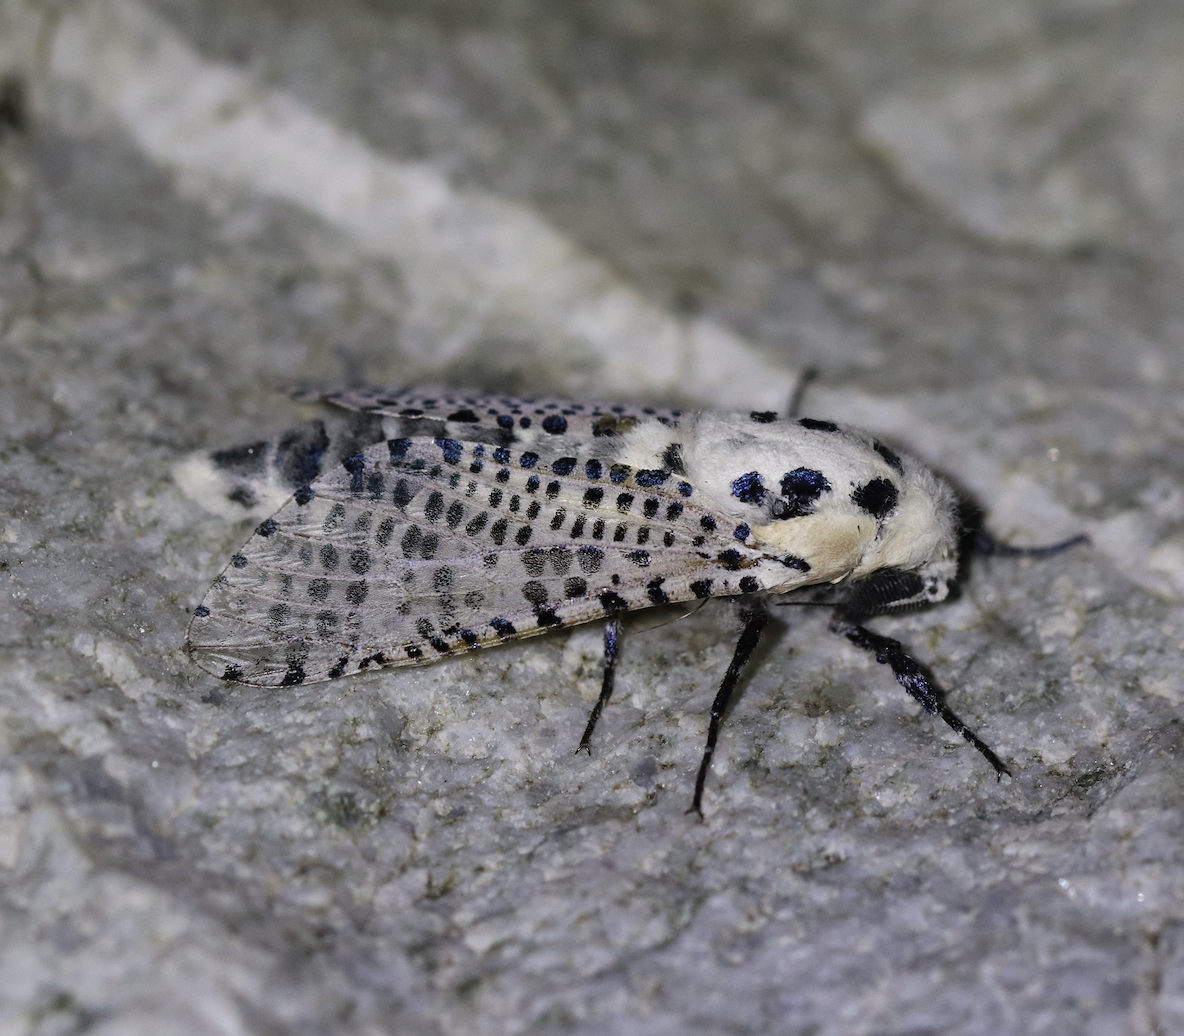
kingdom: Animalia
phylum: Arthropoda
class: Insecta
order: Lepidoptera
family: Cossidae
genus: Zeuzera
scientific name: Zeuzera pyrina
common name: Leopard moth
